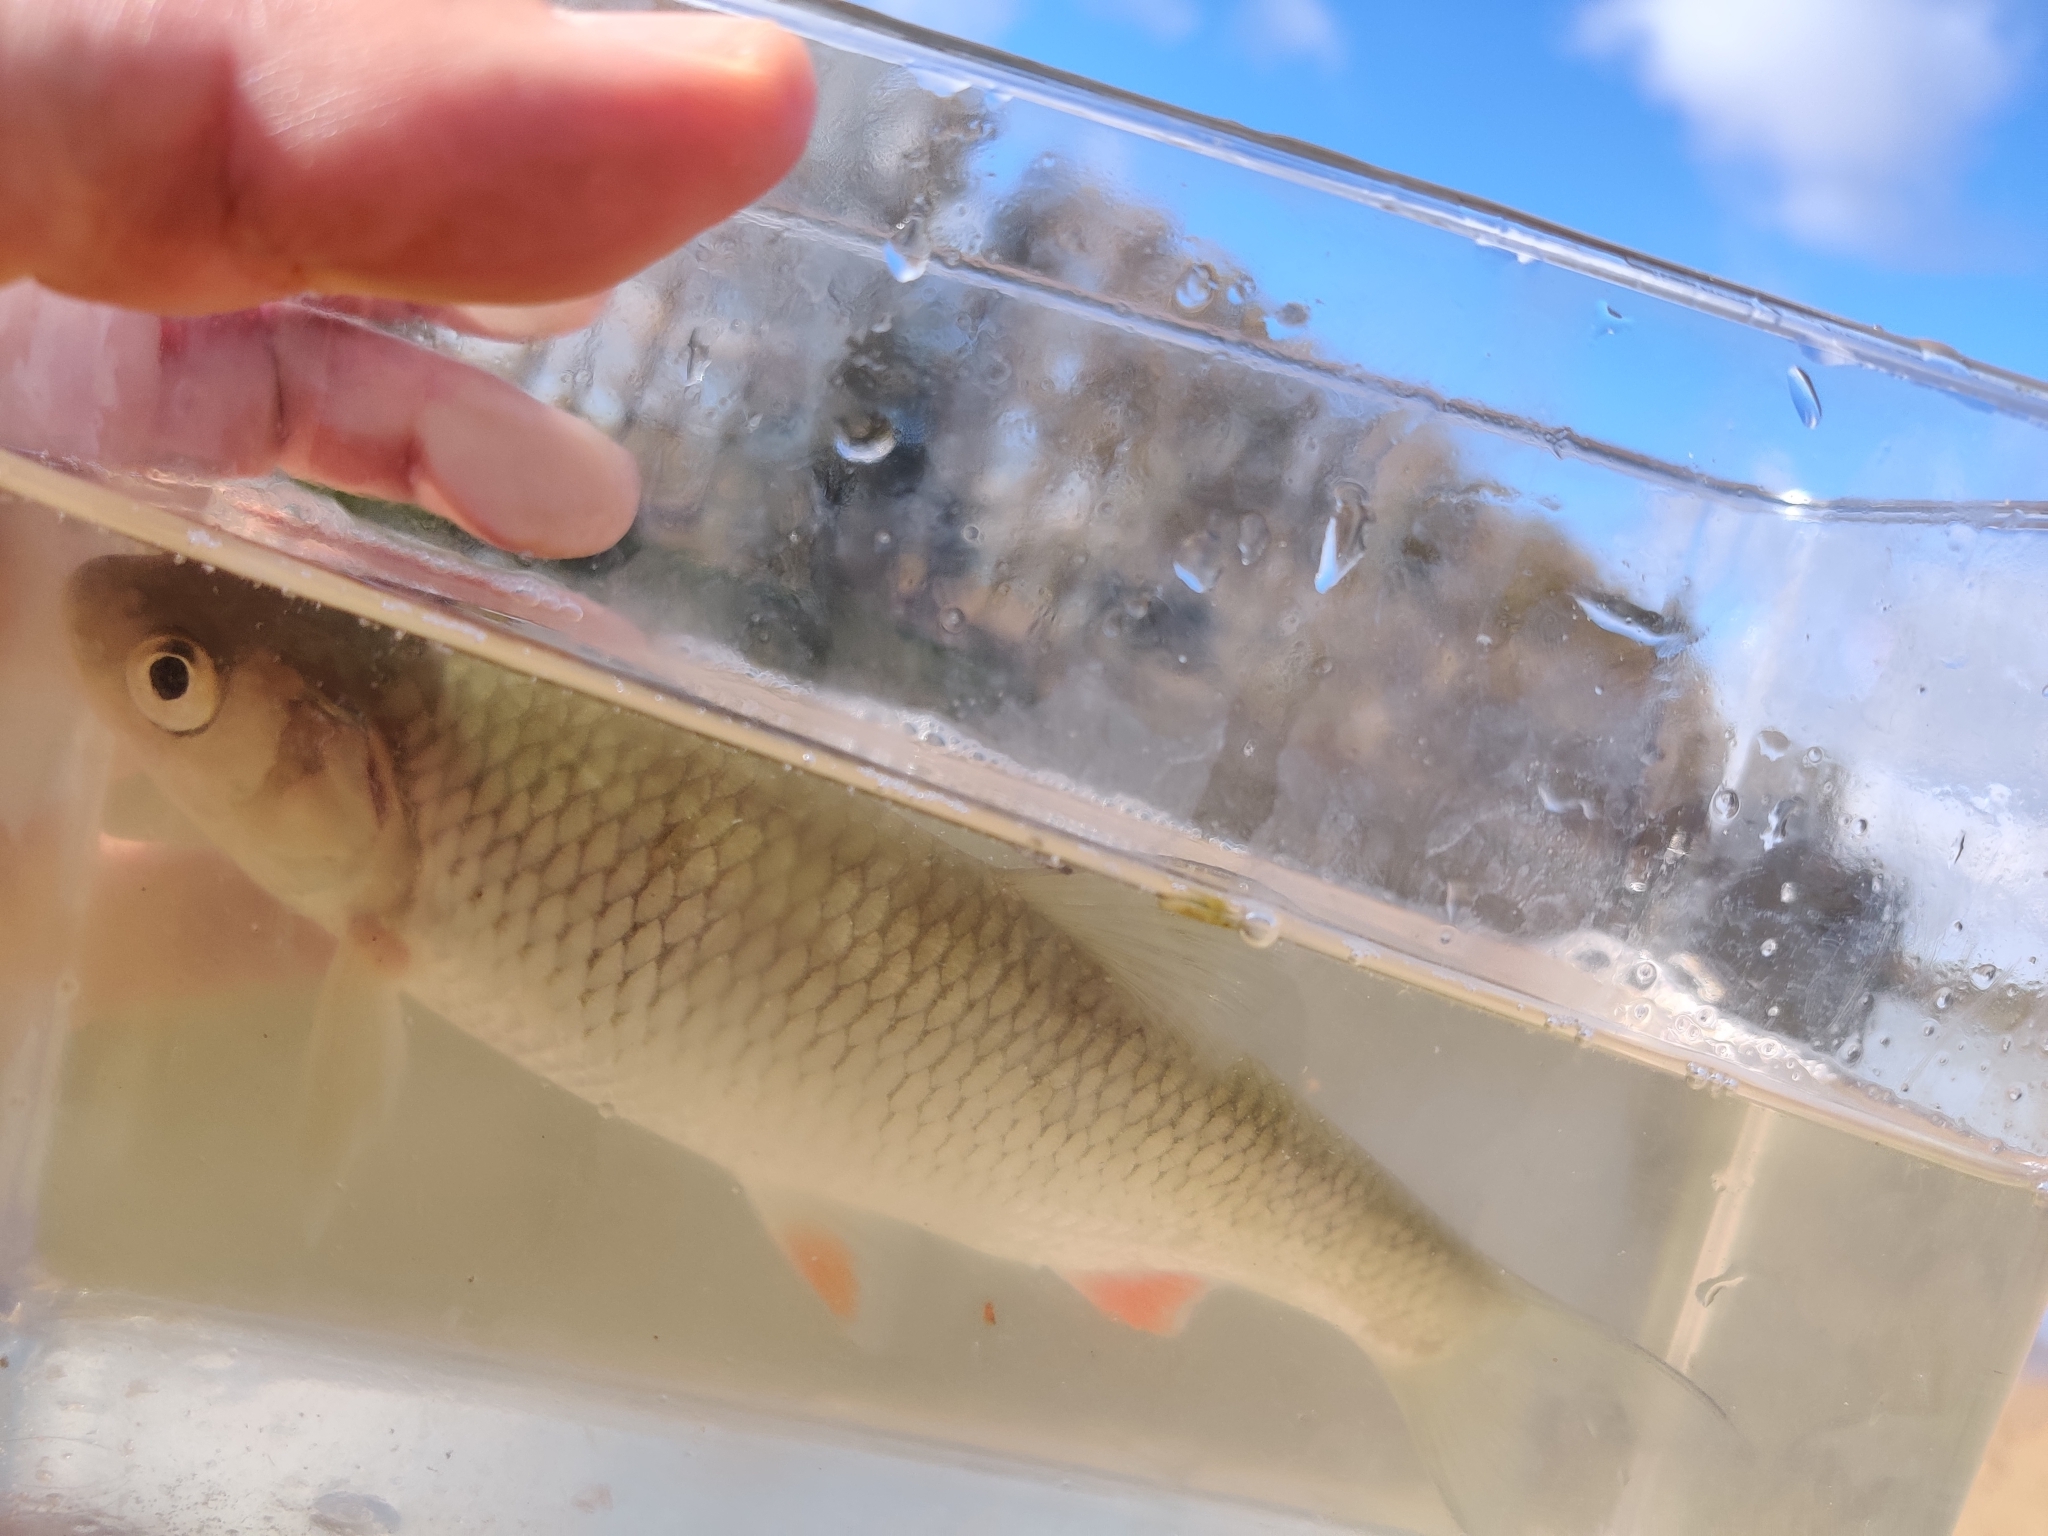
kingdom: Animalia
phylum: Chordata
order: Cypriniformes
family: Cyprinidae
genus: Squalius
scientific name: Squalius cephalus
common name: Chub
